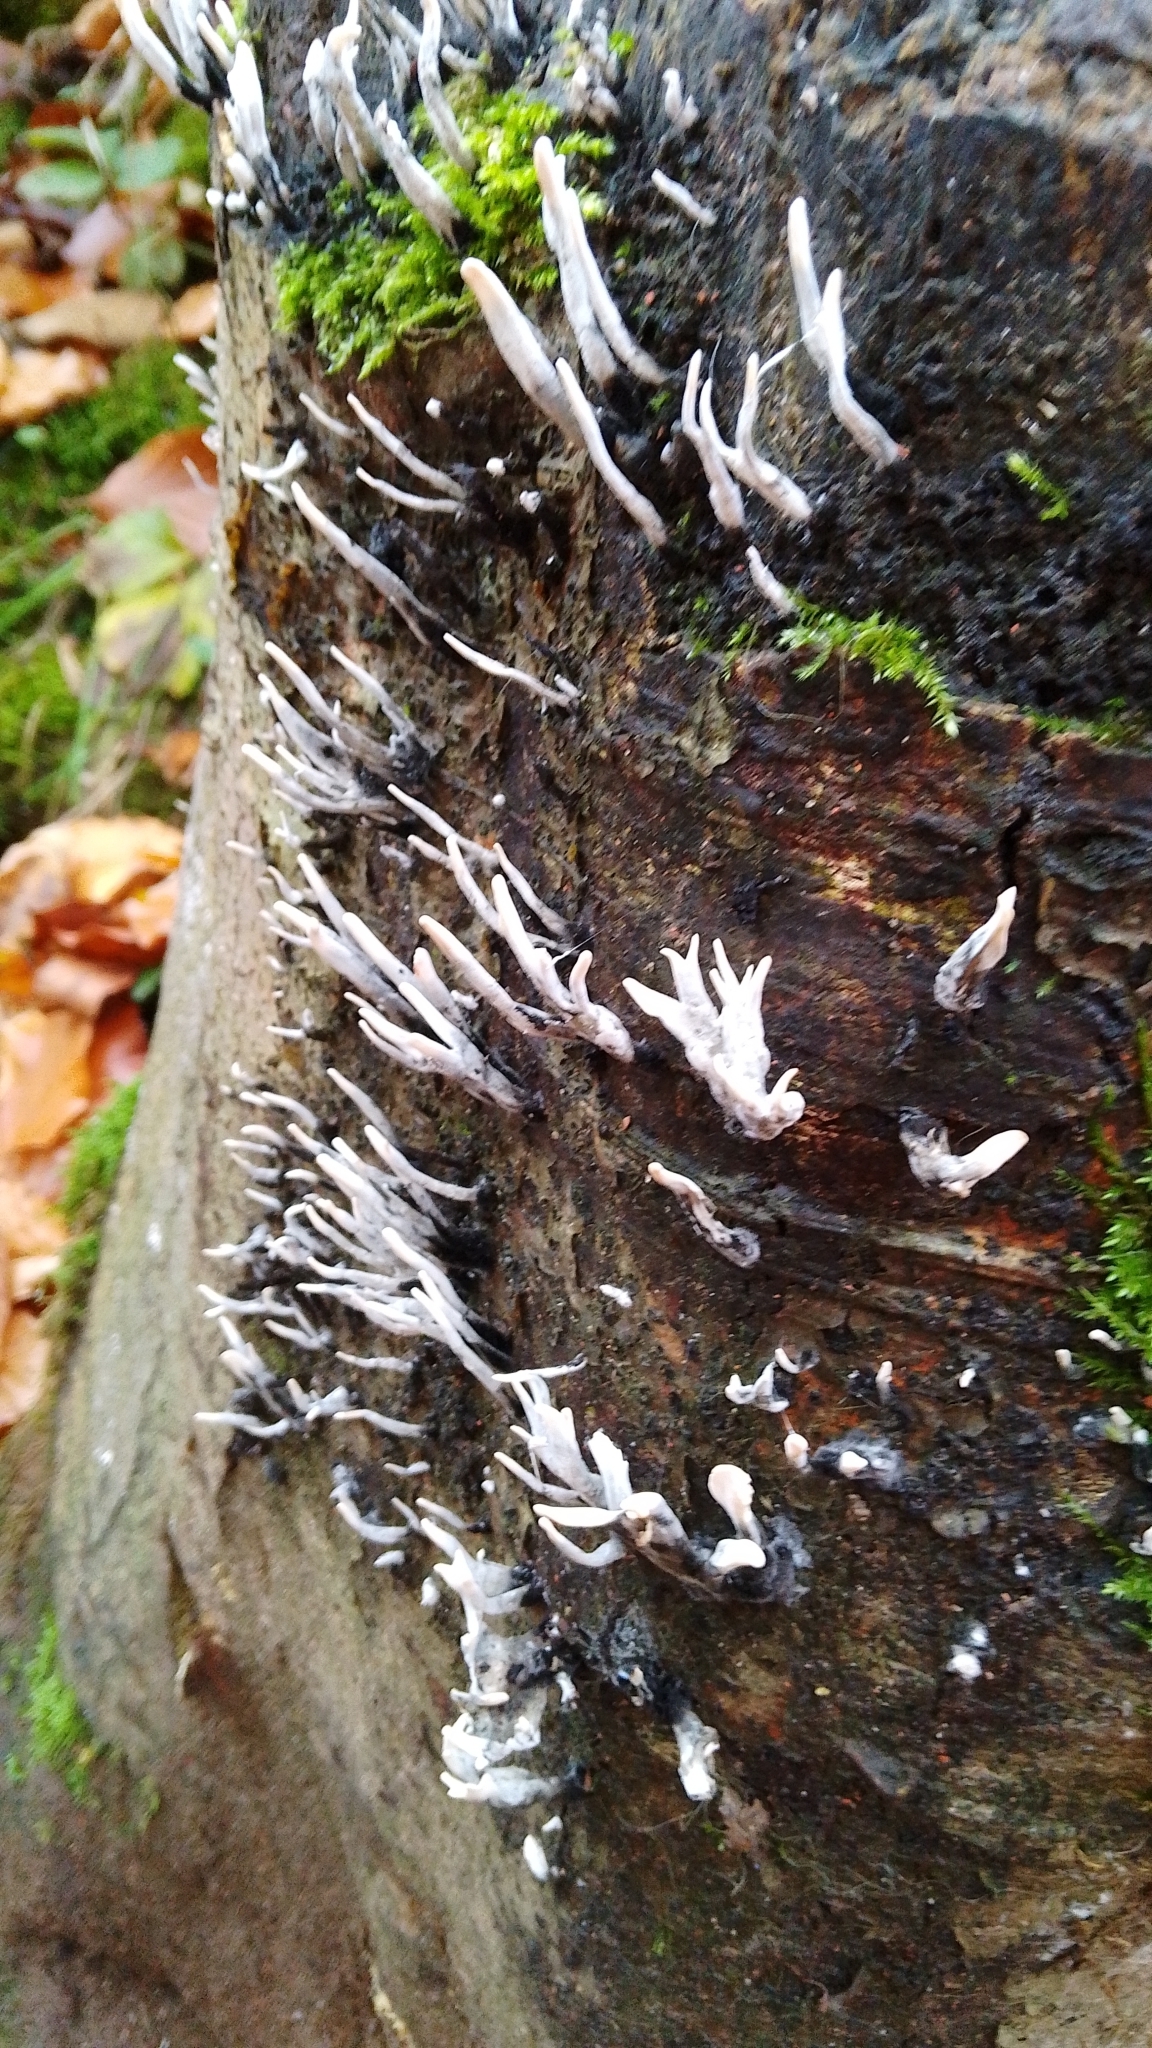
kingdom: Fungi
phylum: Ascomycota
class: Sordariomycetes
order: Xylariales
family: Xylariaceae
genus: Xylaria
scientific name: Xylaria hypoxylon
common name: Candle-snuff fungus
